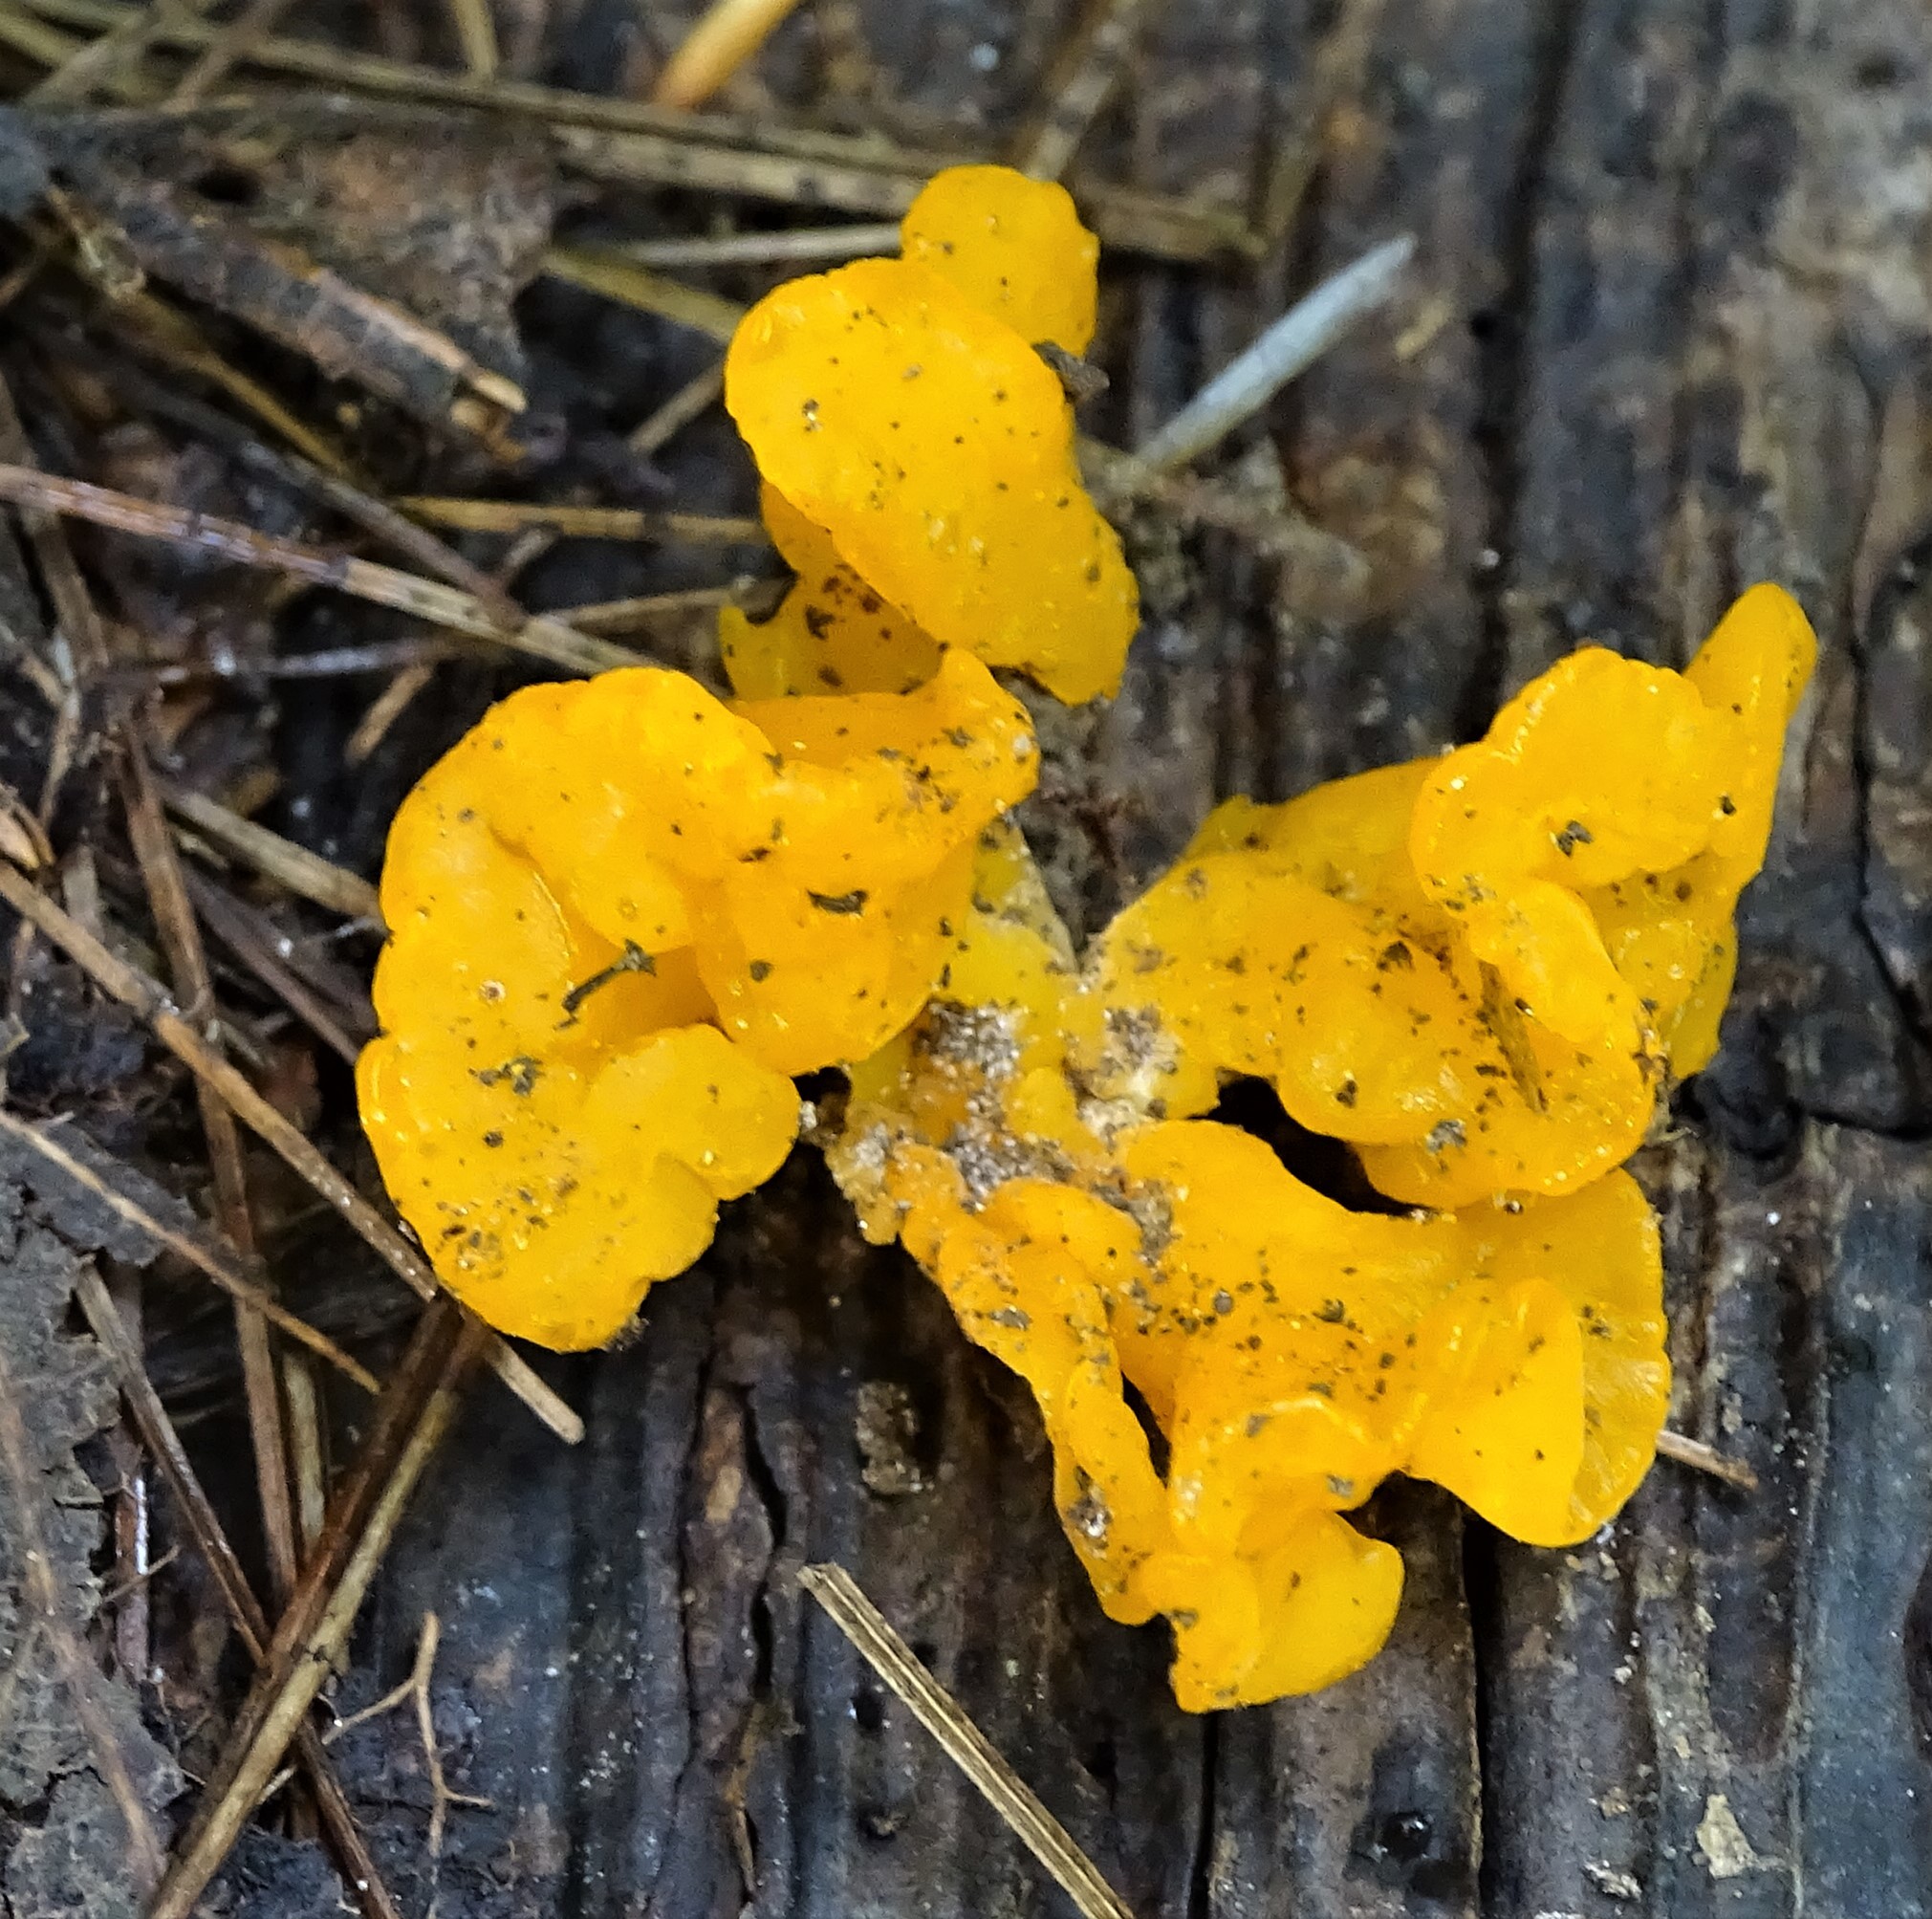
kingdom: Fungi
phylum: Basidiomycota
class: Dacrymycetes
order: Dacrymycetales
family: Dacrymycetaceae
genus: Dacrymyces
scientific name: Dacrymyces chrysospermus
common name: Orange jelly spot
